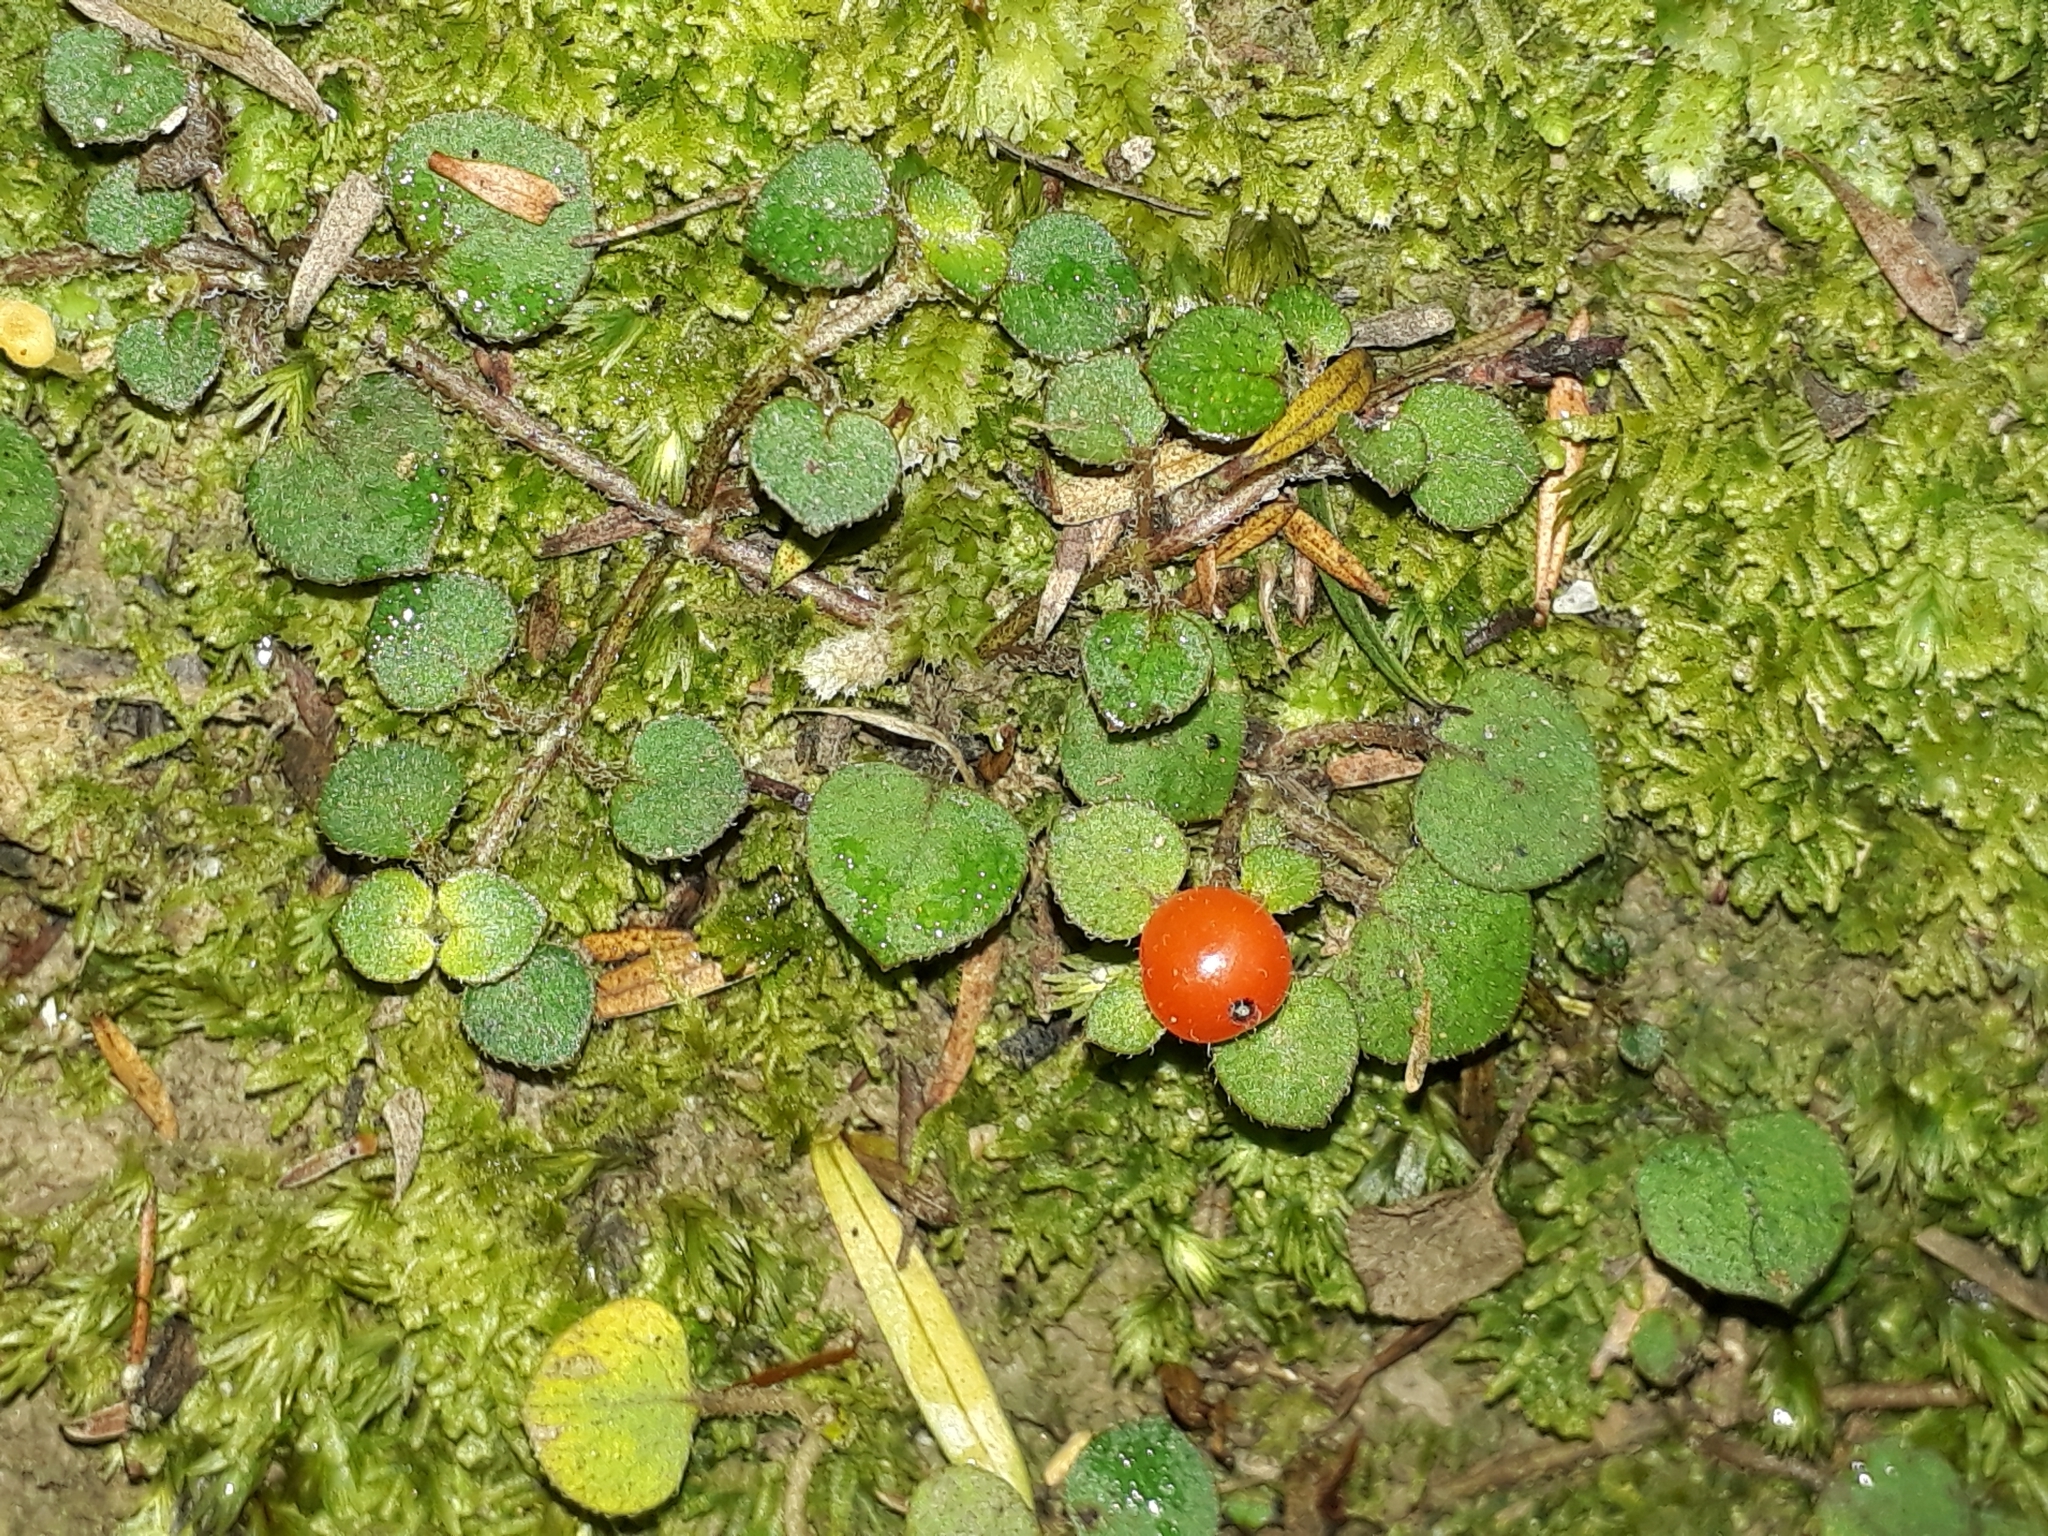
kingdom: Plantae
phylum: Tracheophyta
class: Magnoliopsida
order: Gentianales
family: Rubiaceae
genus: Nertera
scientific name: Nertera dichondrifolia
